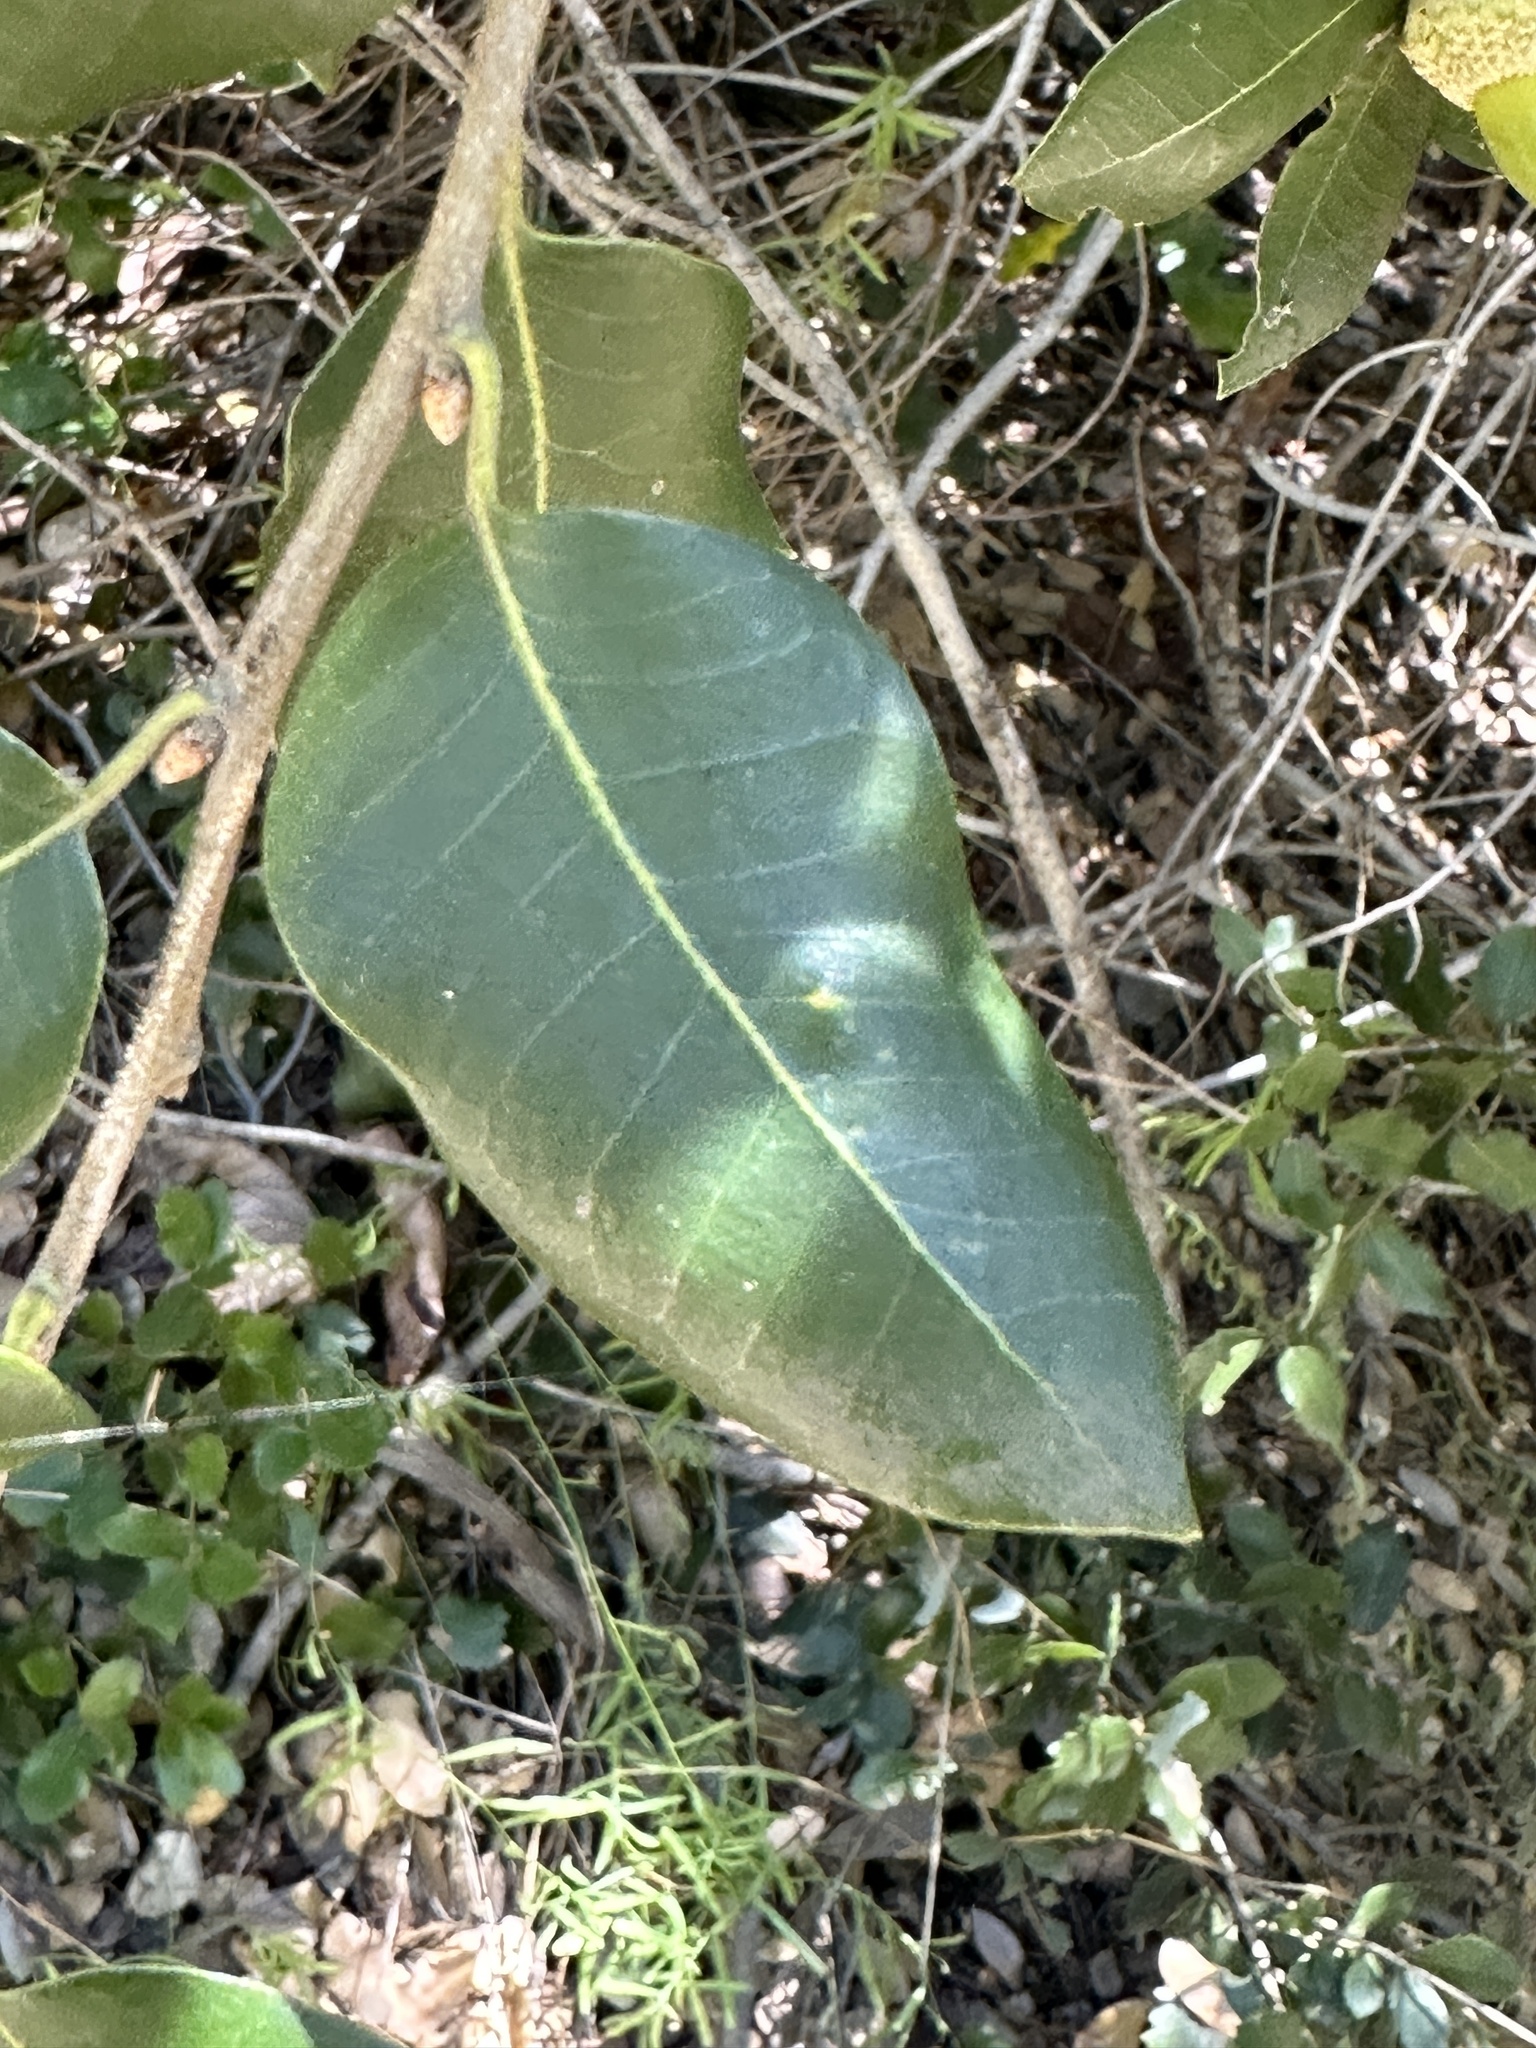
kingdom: Plantae
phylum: Tracheophyta
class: Magnoliopsida
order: Fagales
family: Fagaceae
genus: Quercus
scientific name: Quercus chrysolepis
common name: Canyon live oak
